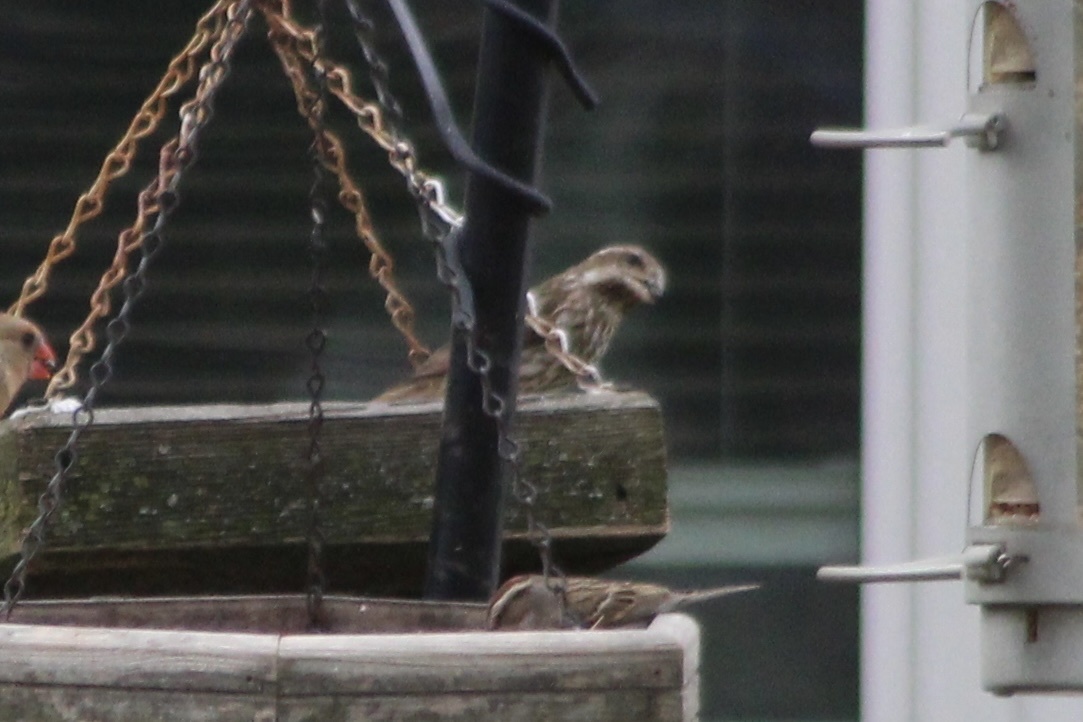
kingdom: Animalia
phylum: Chordata
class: Aves
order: Passeriformes
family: Passerellidae
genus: Spizella
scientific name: Spizella passerina
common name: Chipping sparrow
